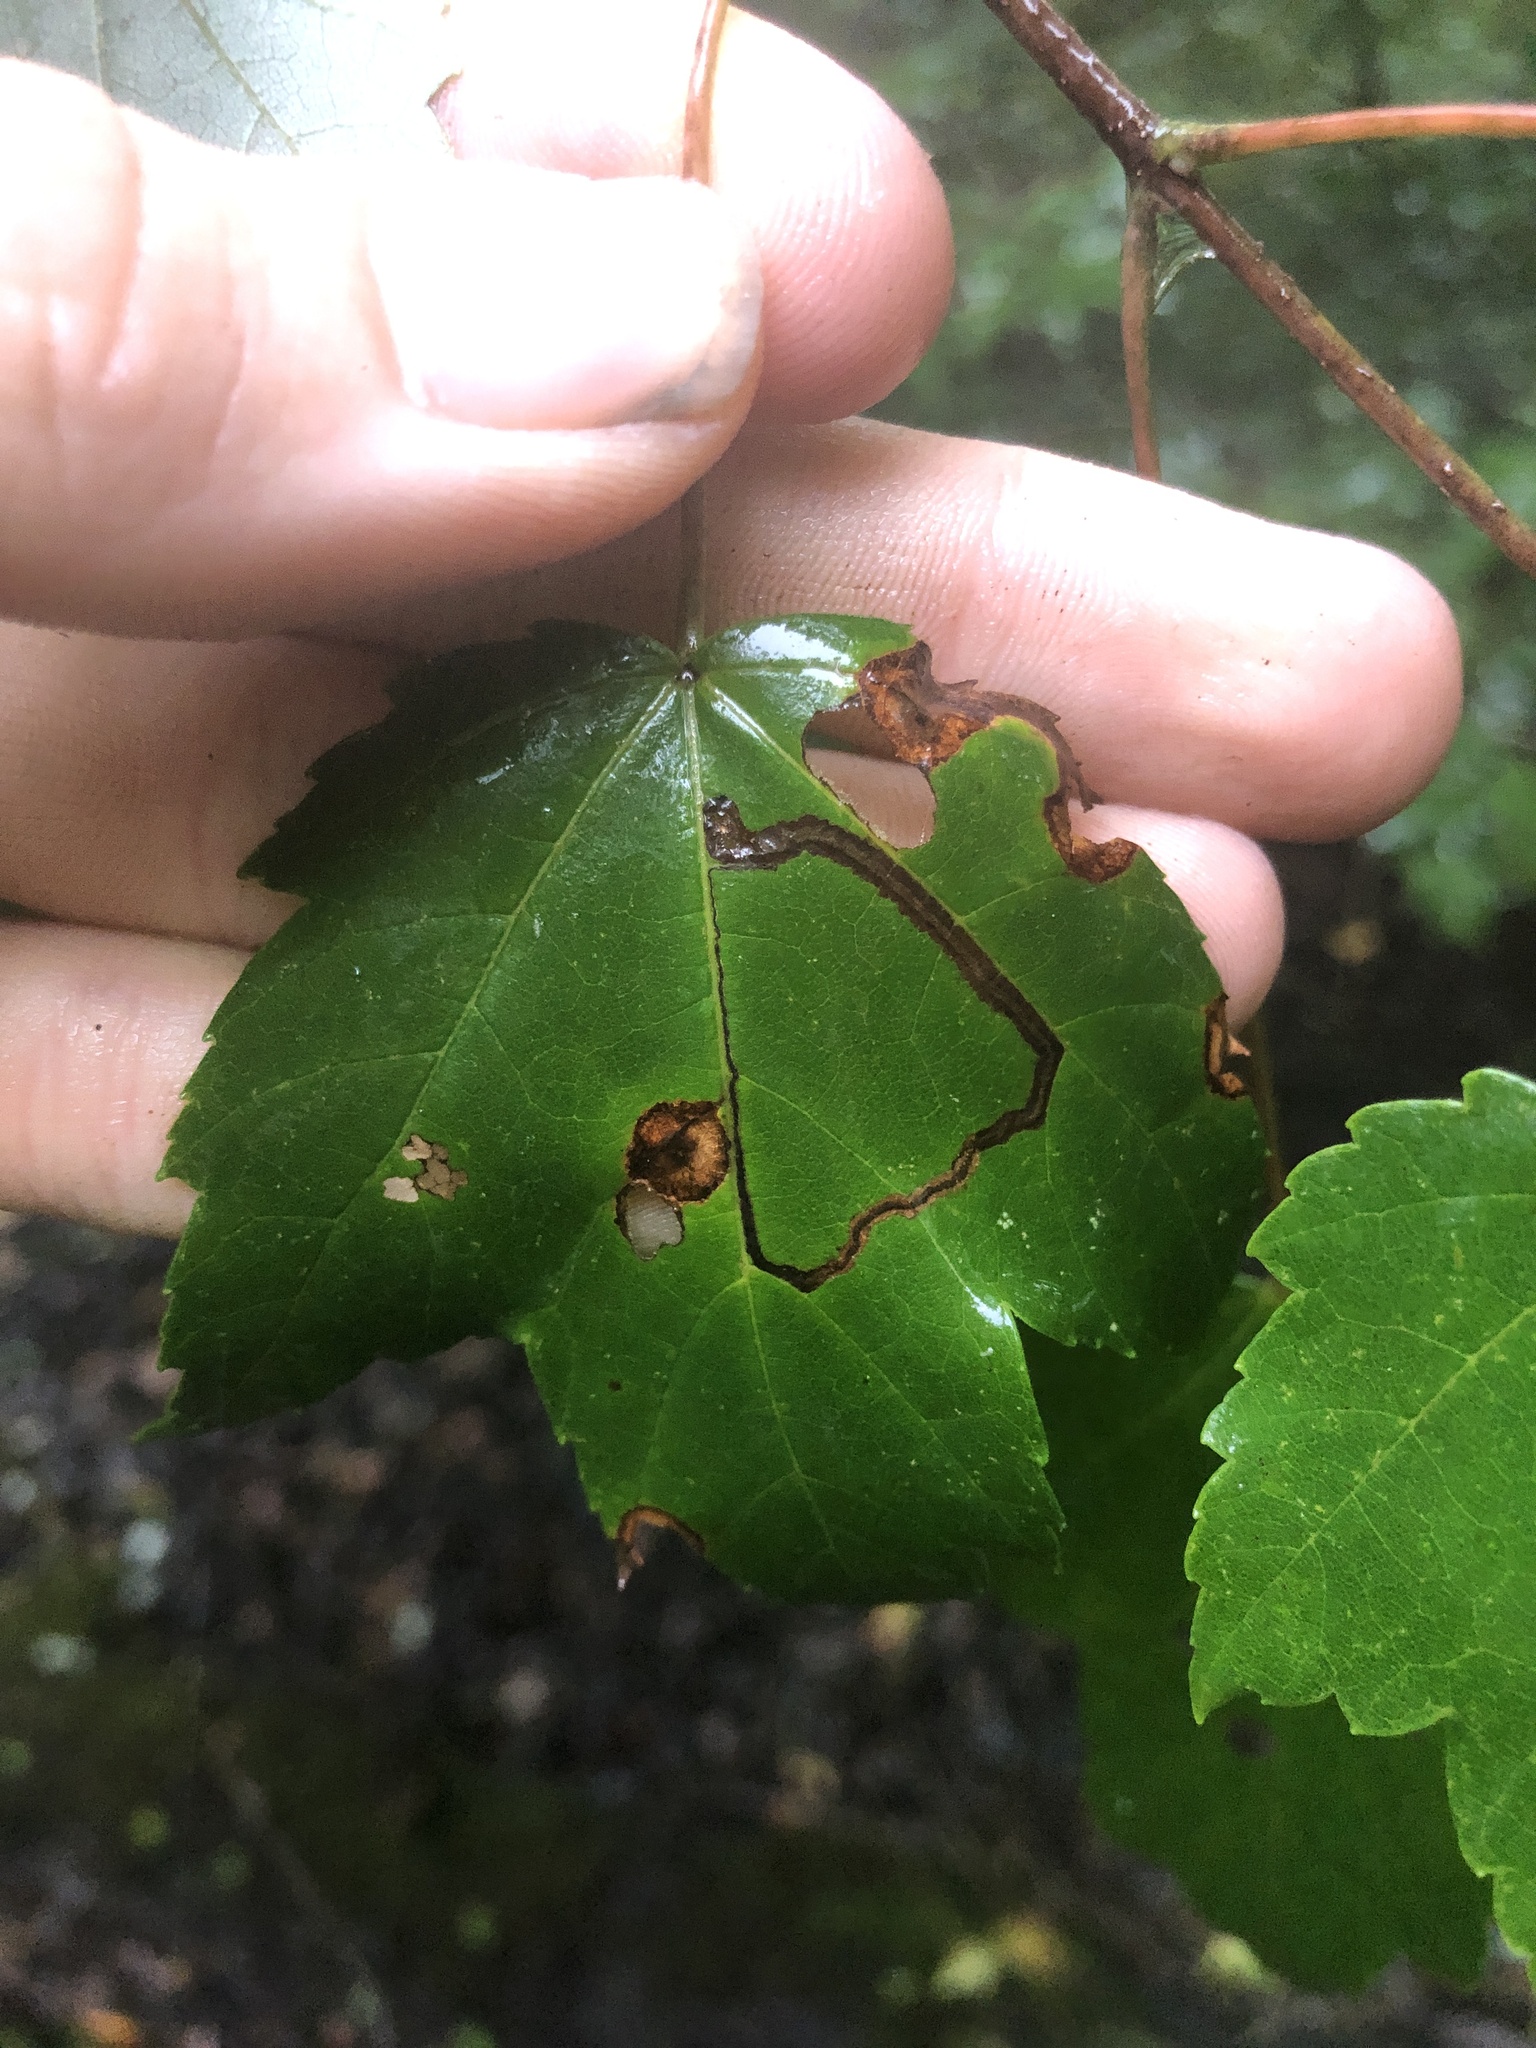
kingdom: Animalia
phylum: Arthropoda
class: Insecta
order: Lepidoptera
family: Nepticulidae
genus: Glaucolepis
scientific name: Glaucolepis saccharella
